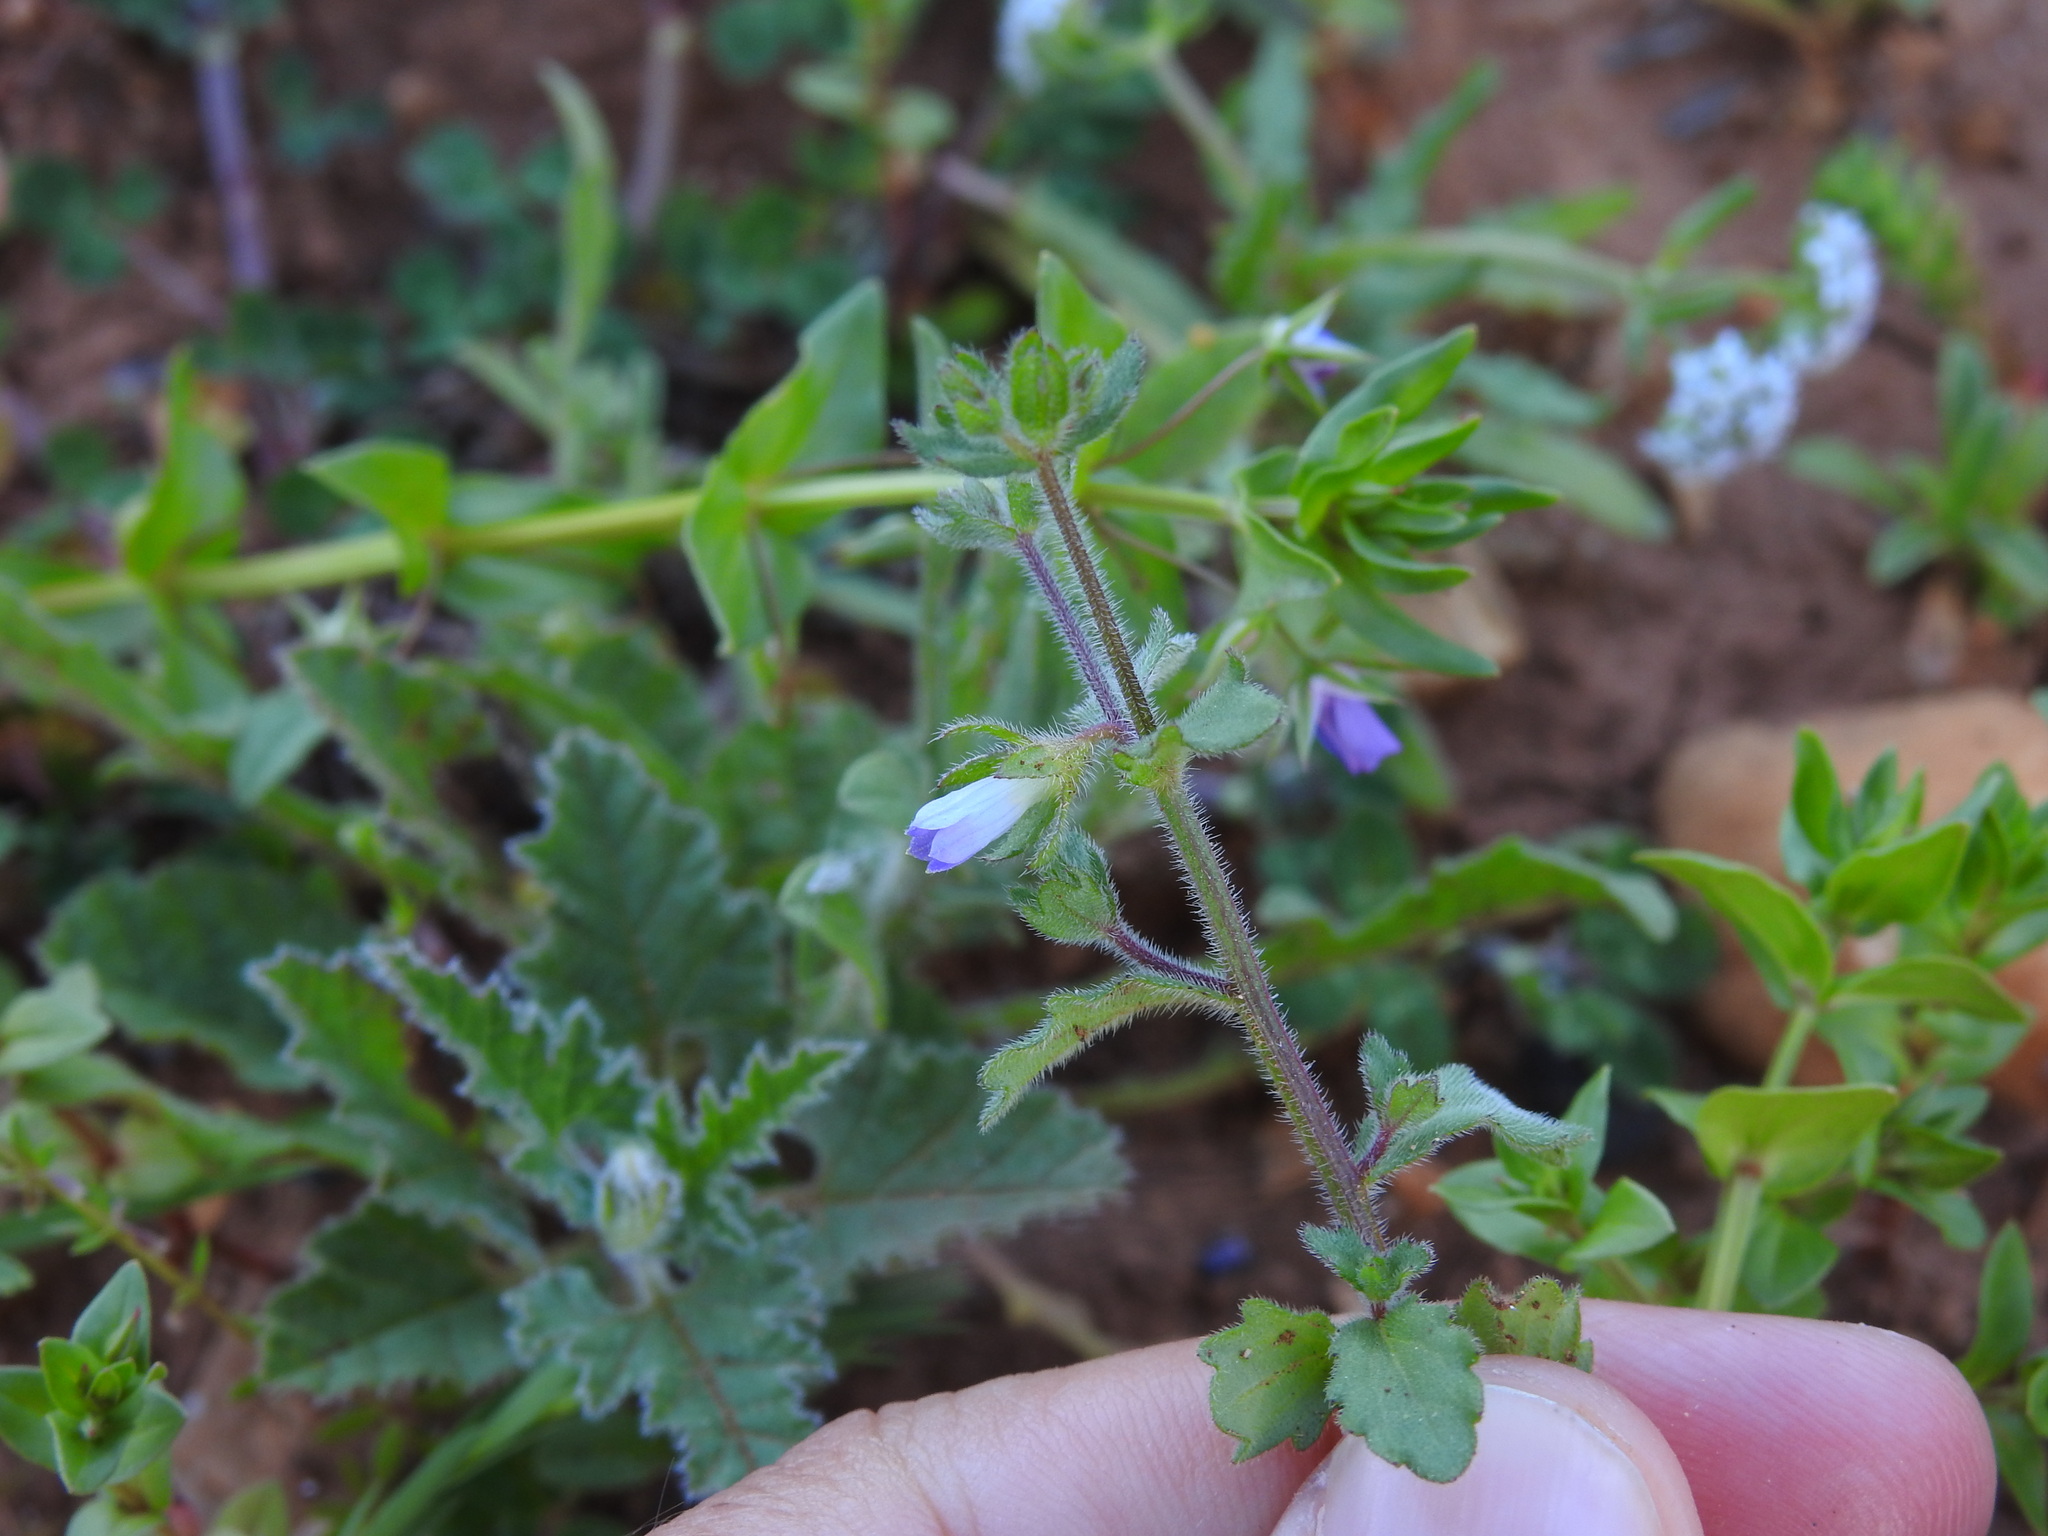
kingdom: Plantae
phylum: Tracheophyta
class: Magnoliopsida
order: Asterales
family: Campanulaceae
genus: Campanula
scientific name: Campanula erinus
